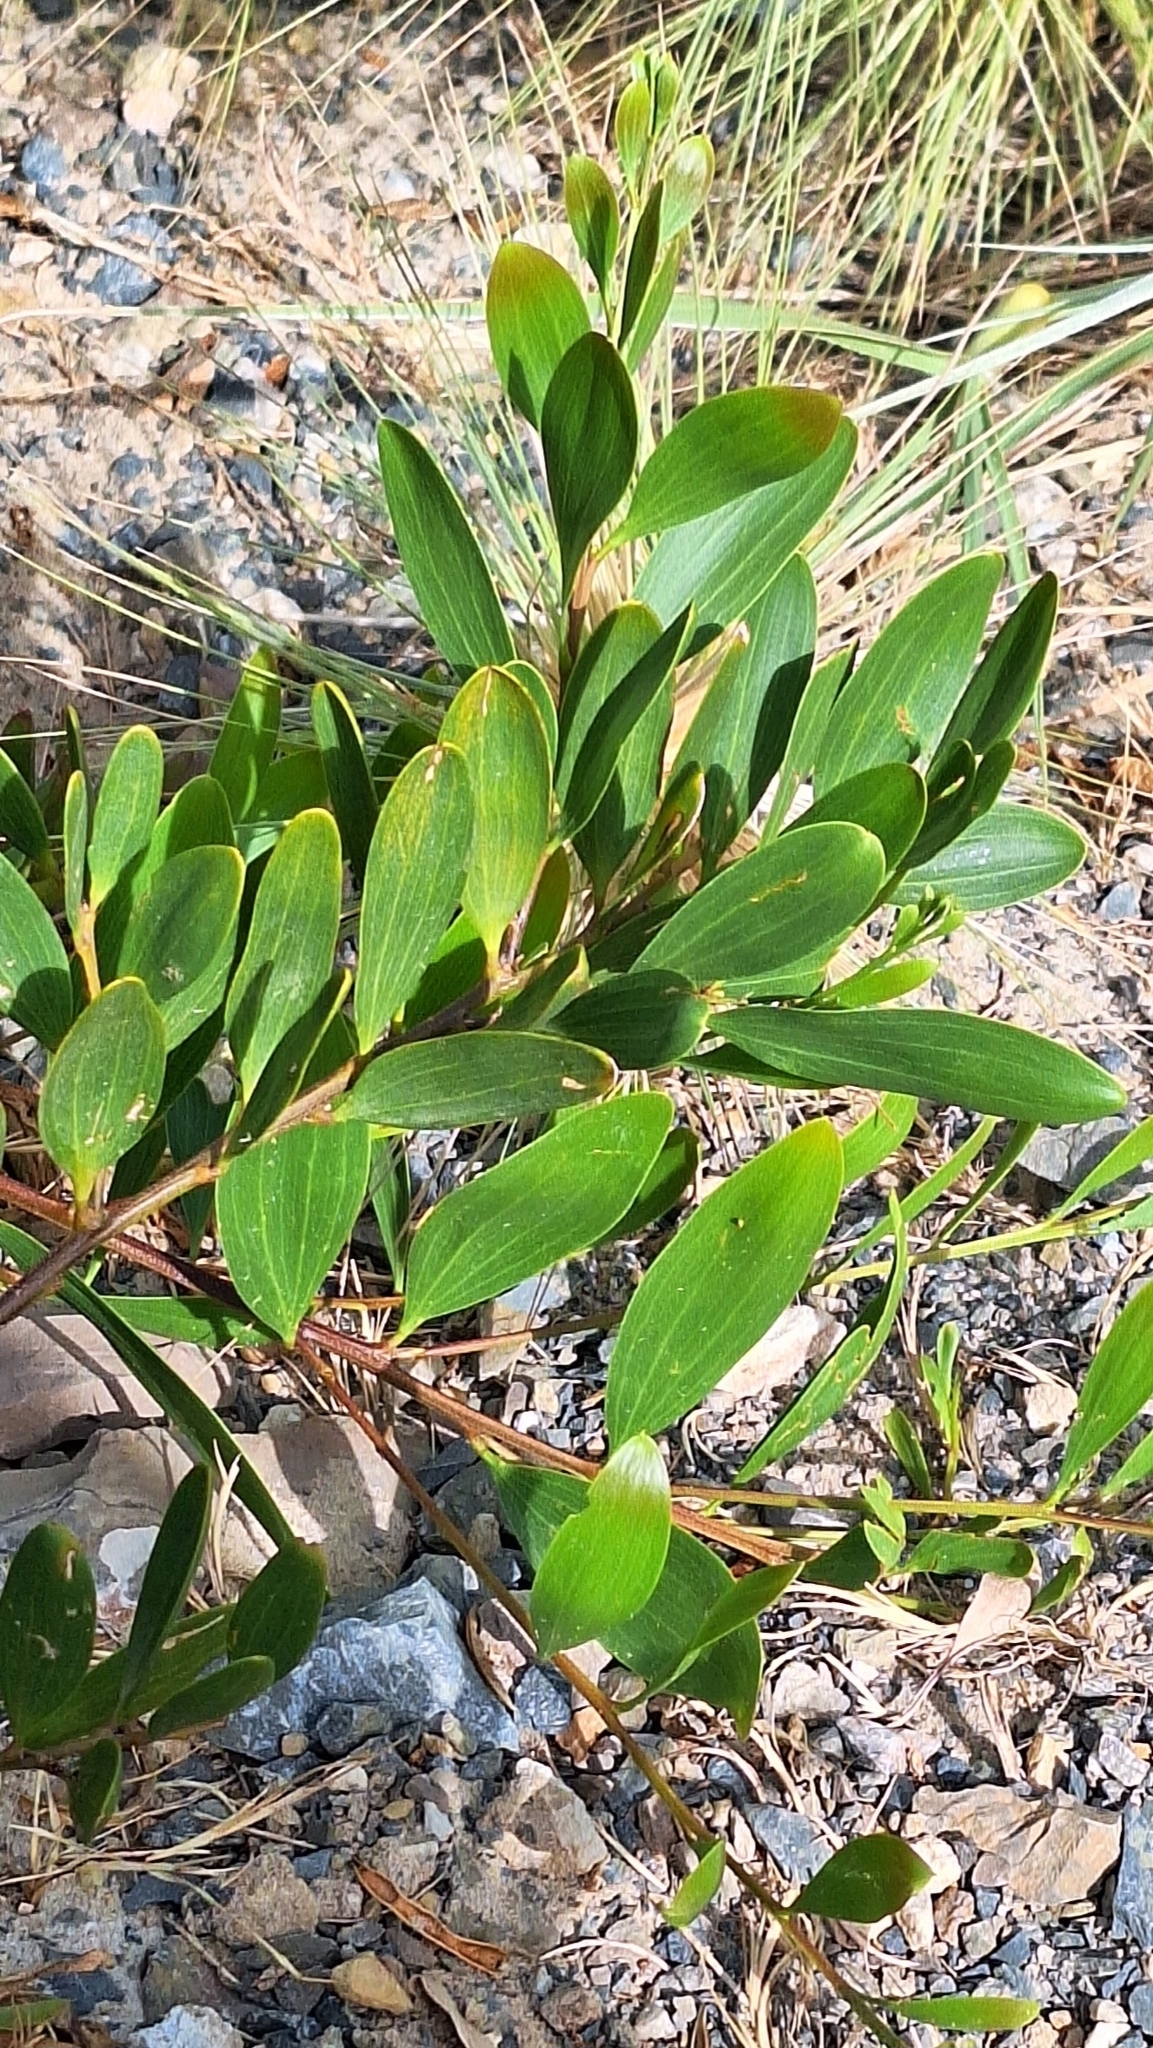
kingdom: Plantae
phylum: Tracheophyta
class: Magnoliopsida
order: Fabales
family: Fabaceae
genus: Acacia
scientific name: Acacia longifolia
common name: Sydney golden wattle
